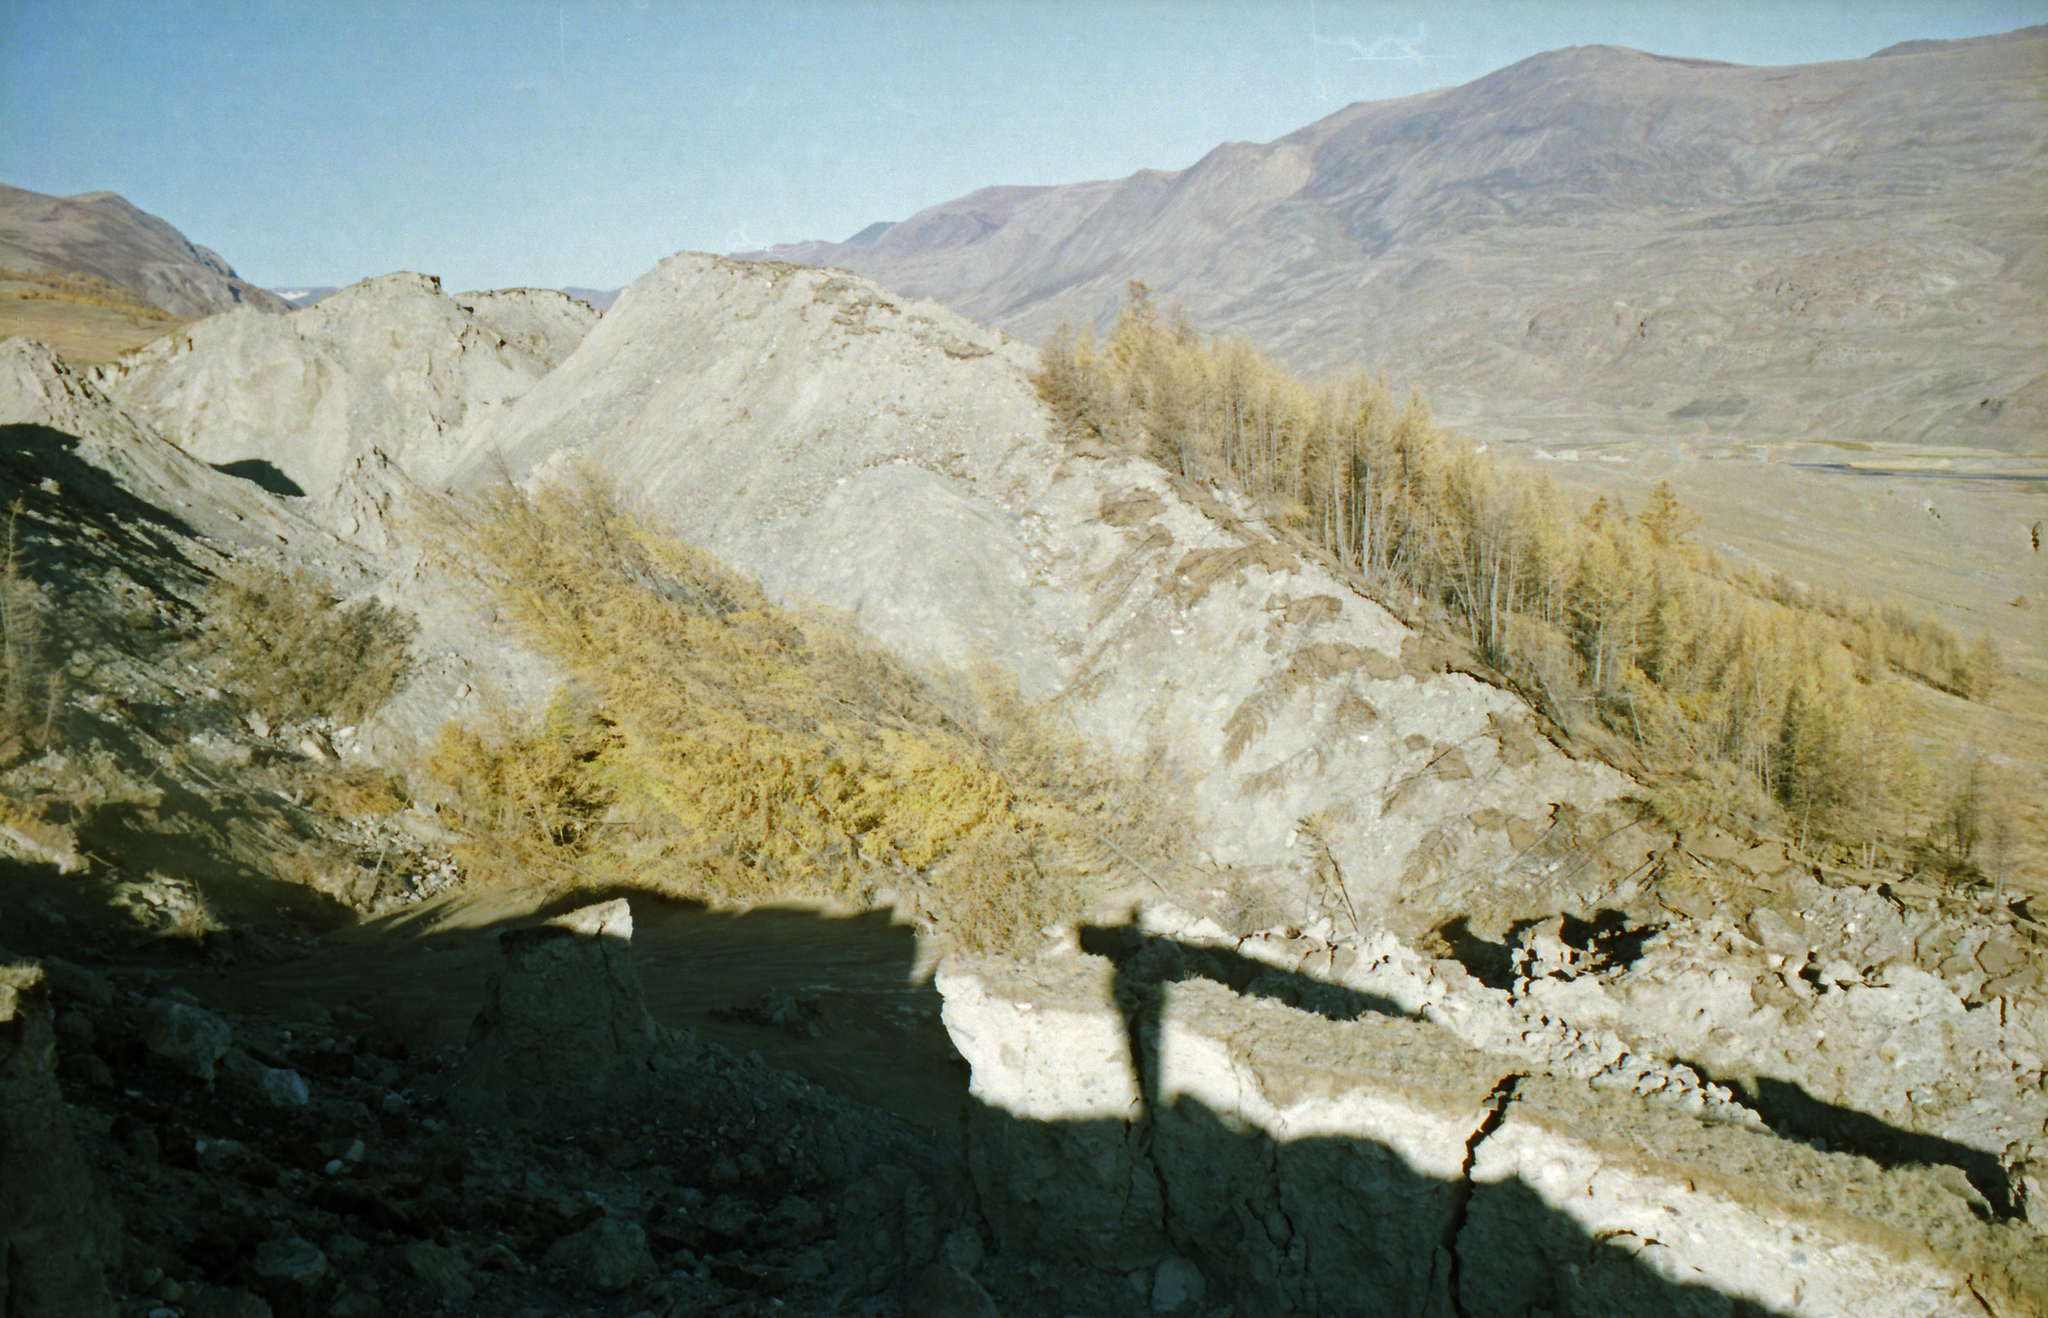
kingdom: Plantae
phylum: Tracheophyta
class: Pinopsida
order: Pinales
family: Pinaceae
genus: Larix
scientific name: Larix sibirica
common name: Siberian larch
